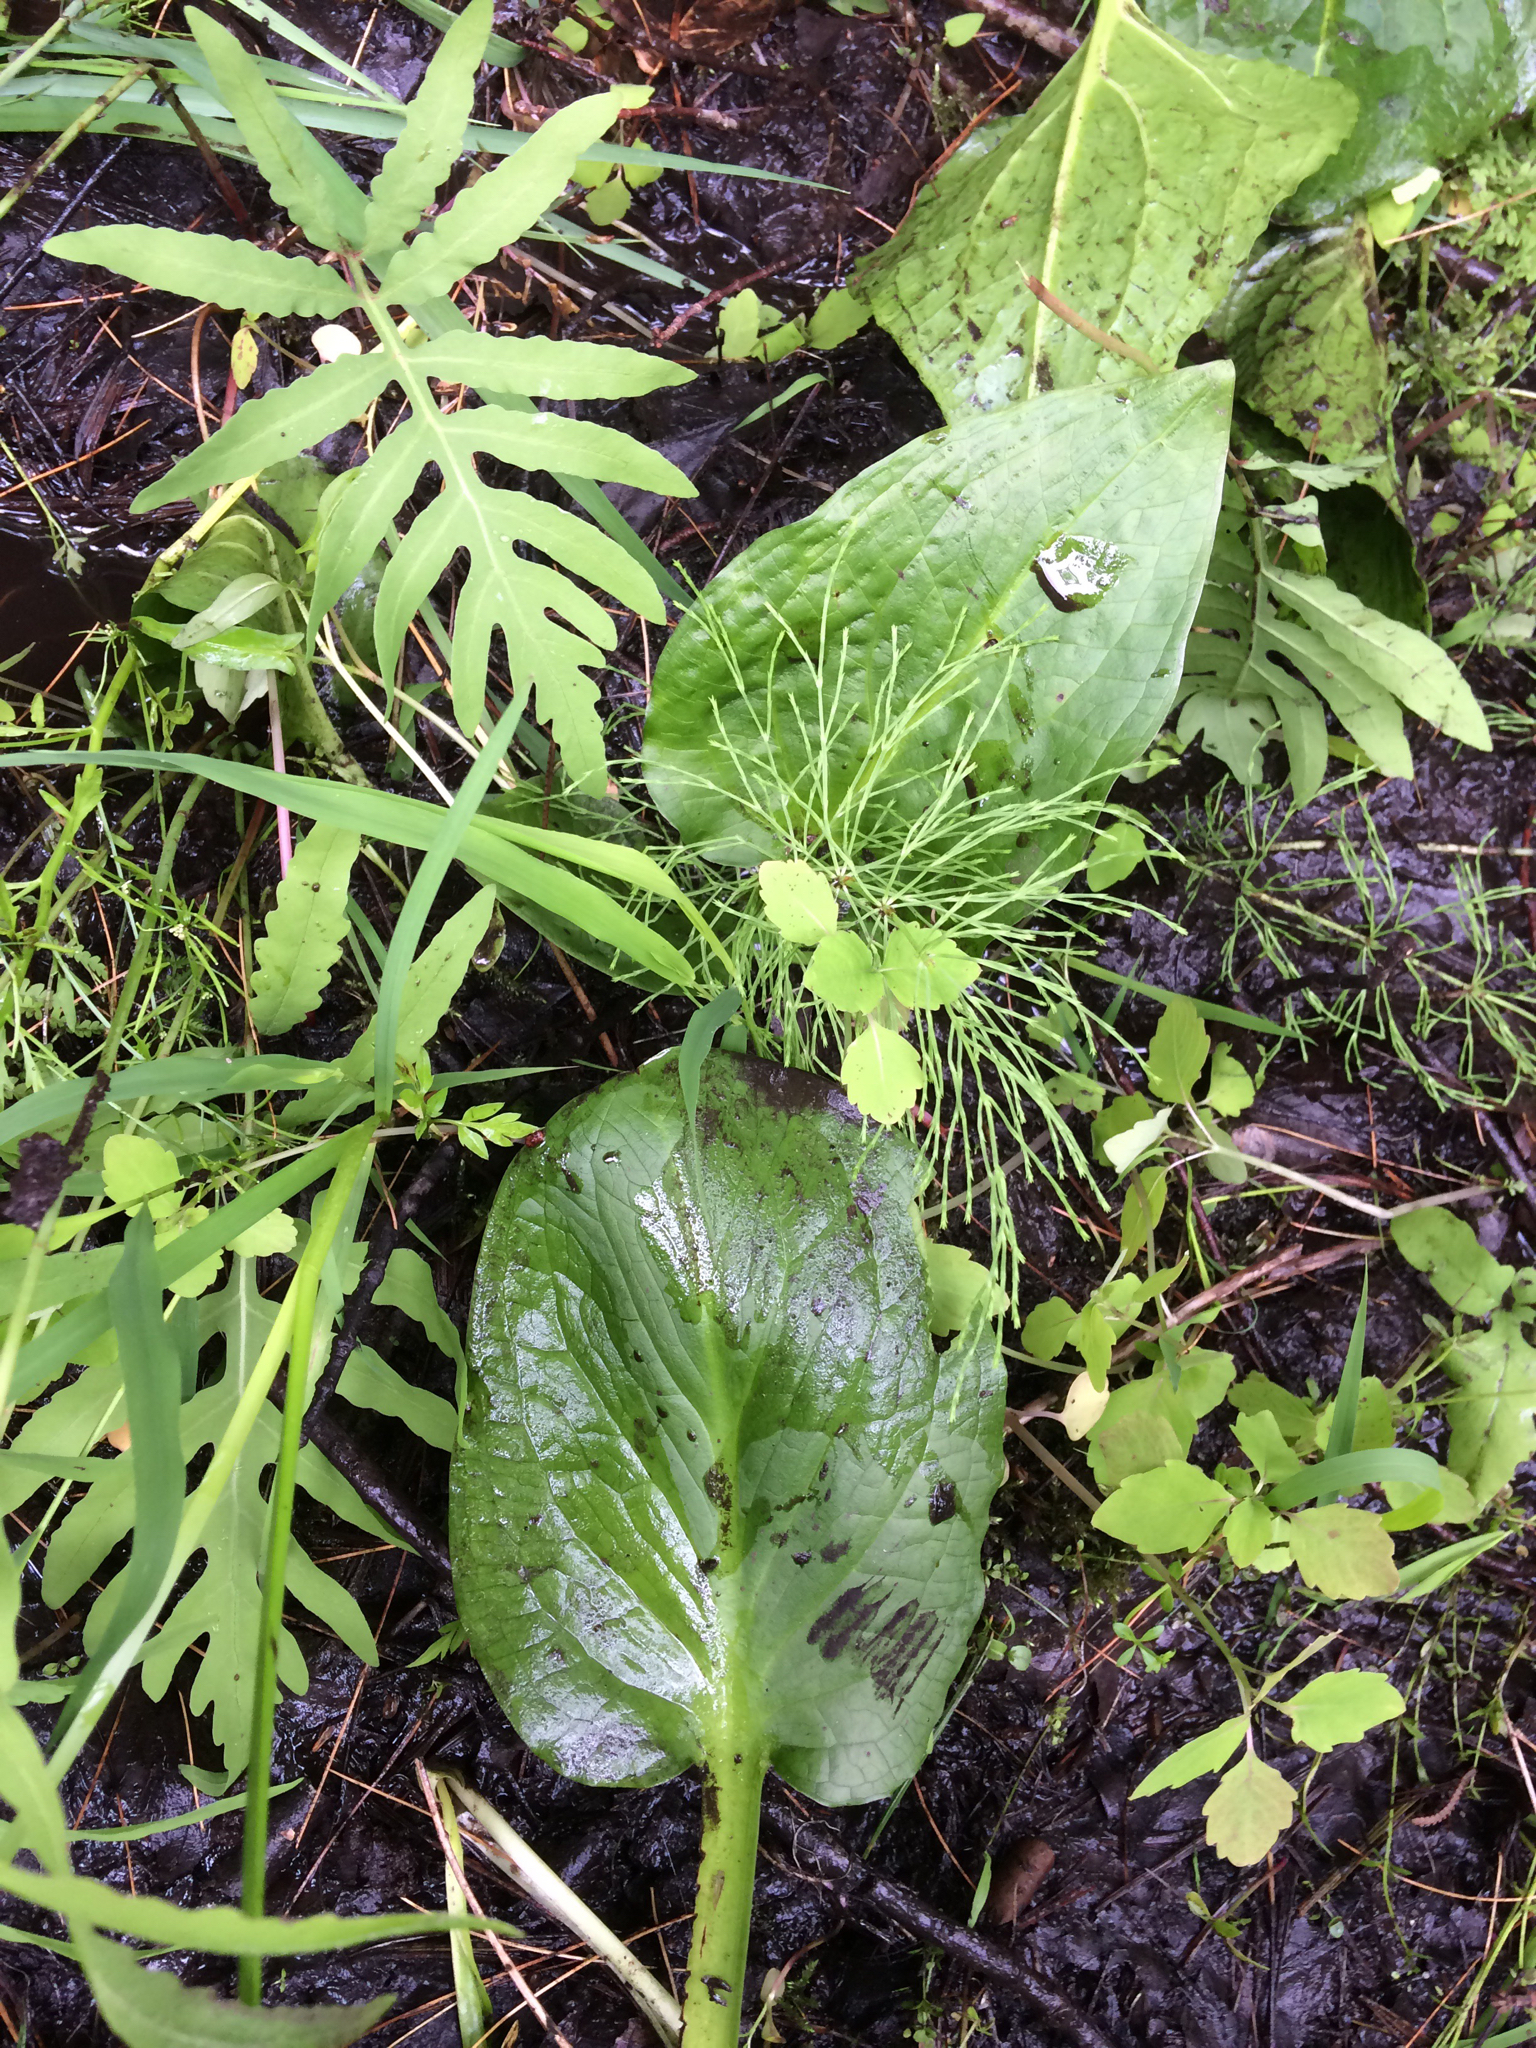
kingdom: Plantae
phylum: Tracheophyta
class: Polypodiopsida
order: Equisetales
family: Equisetaceae
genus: Equisetum
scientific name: Equisetum sylvaticum
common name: Wood horsetail
